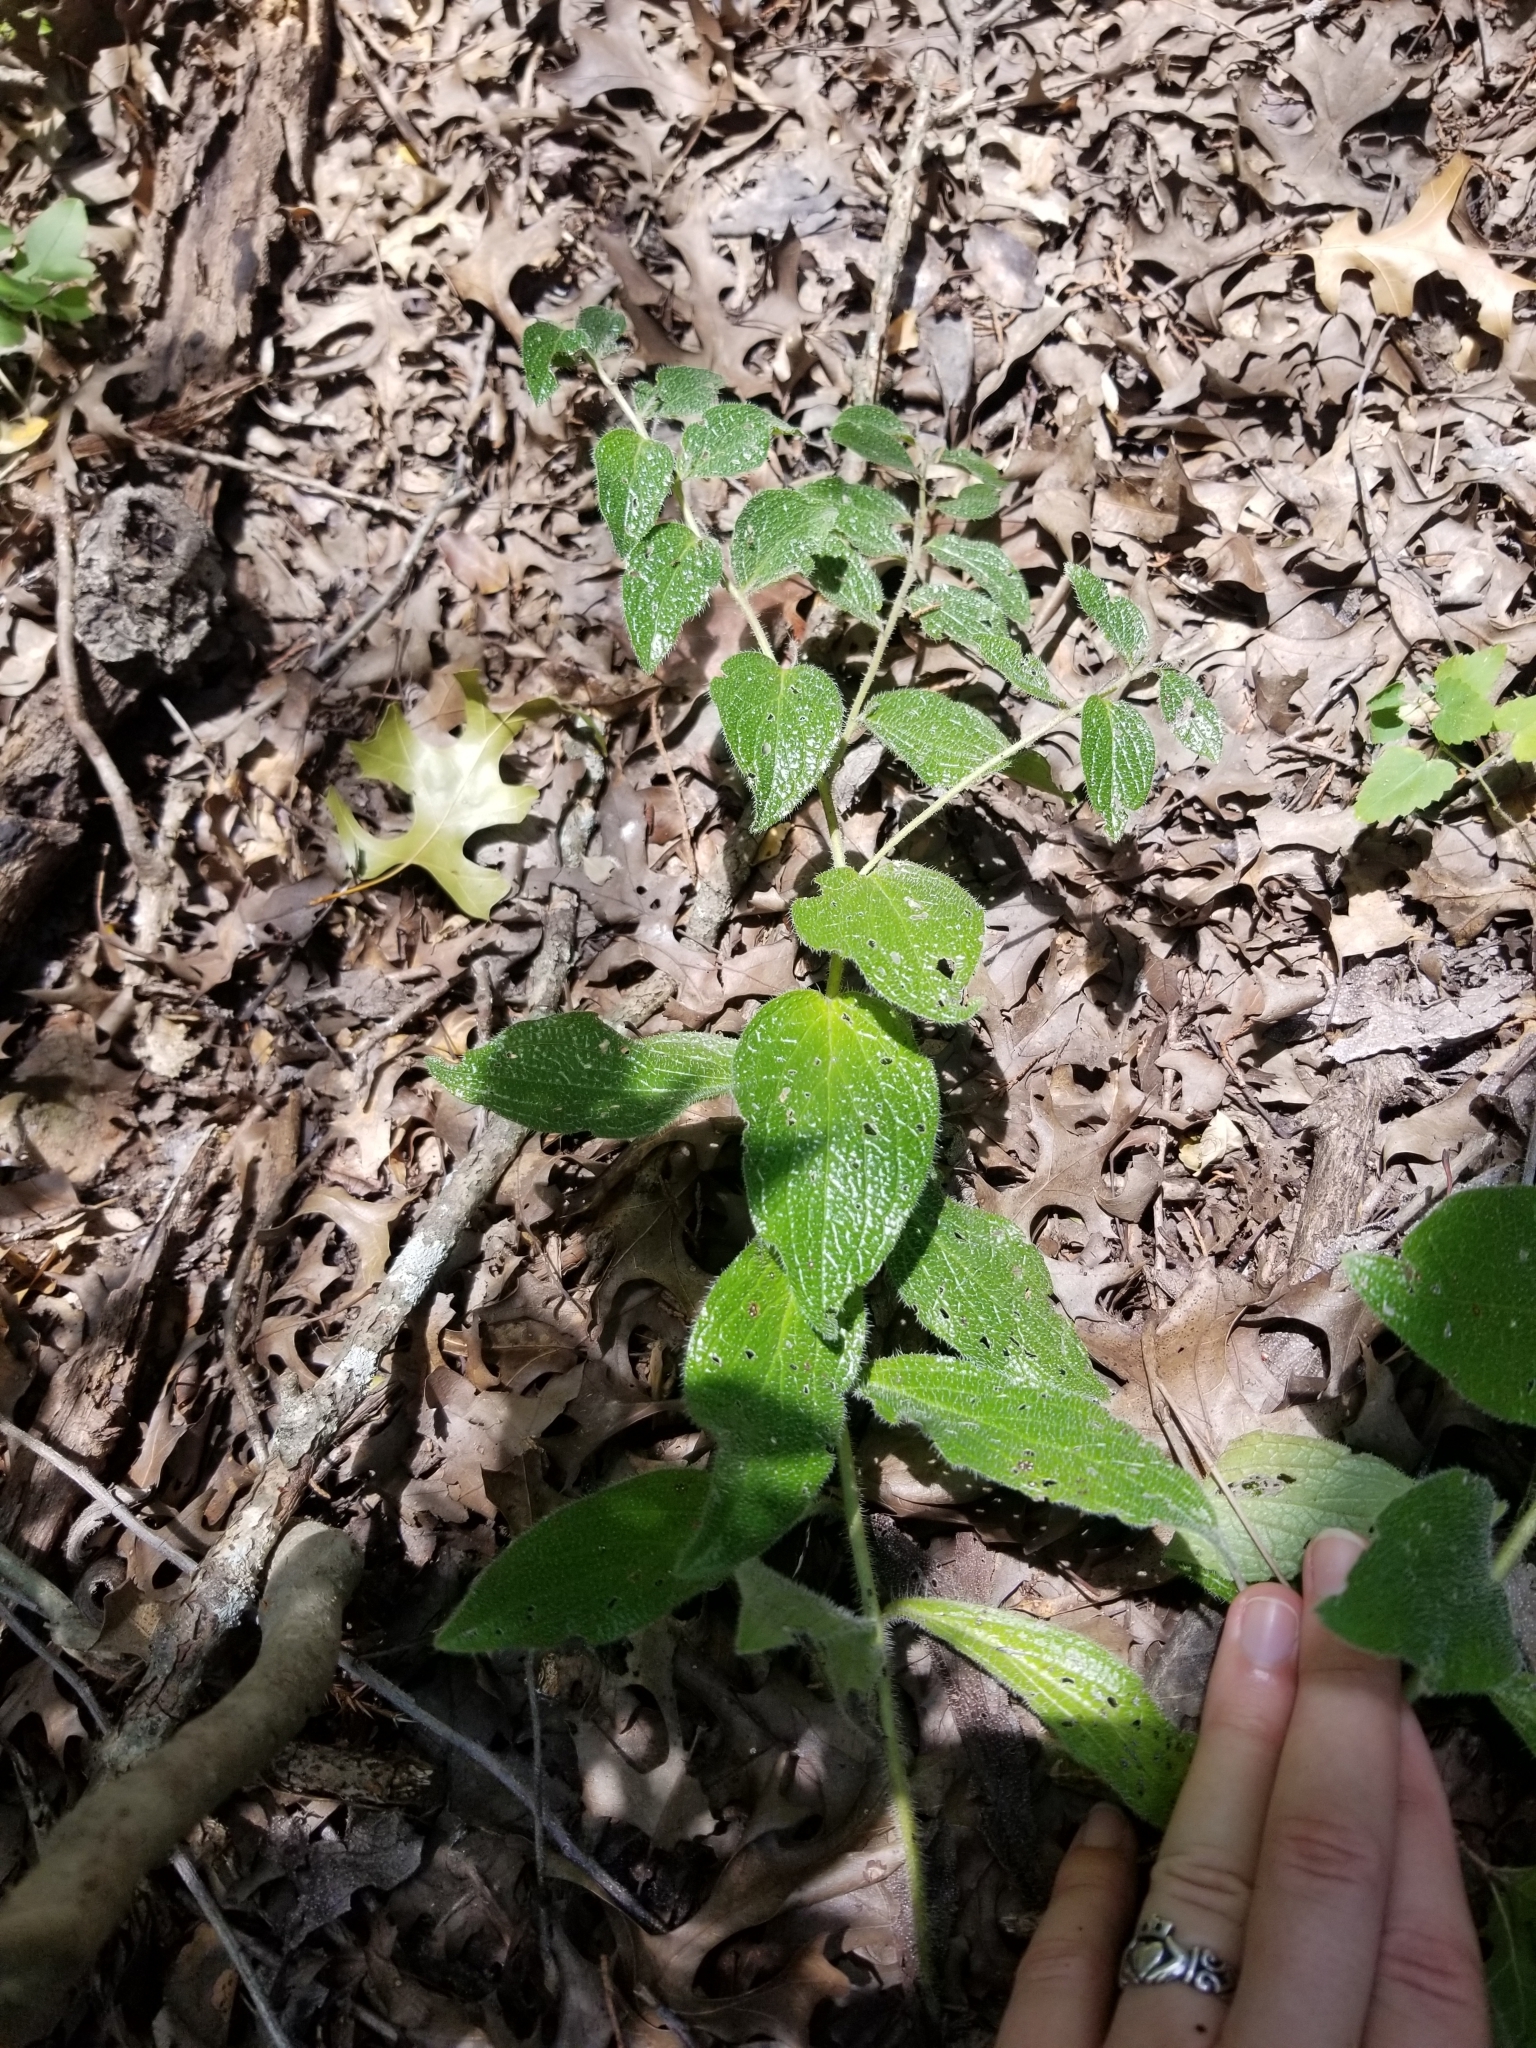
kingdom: Plantae
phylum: Tracheophyta
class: Magnoliopsida
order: Boraginales
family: Boraginaceae
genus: Lithospermum
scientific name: Lithospermum helleri
